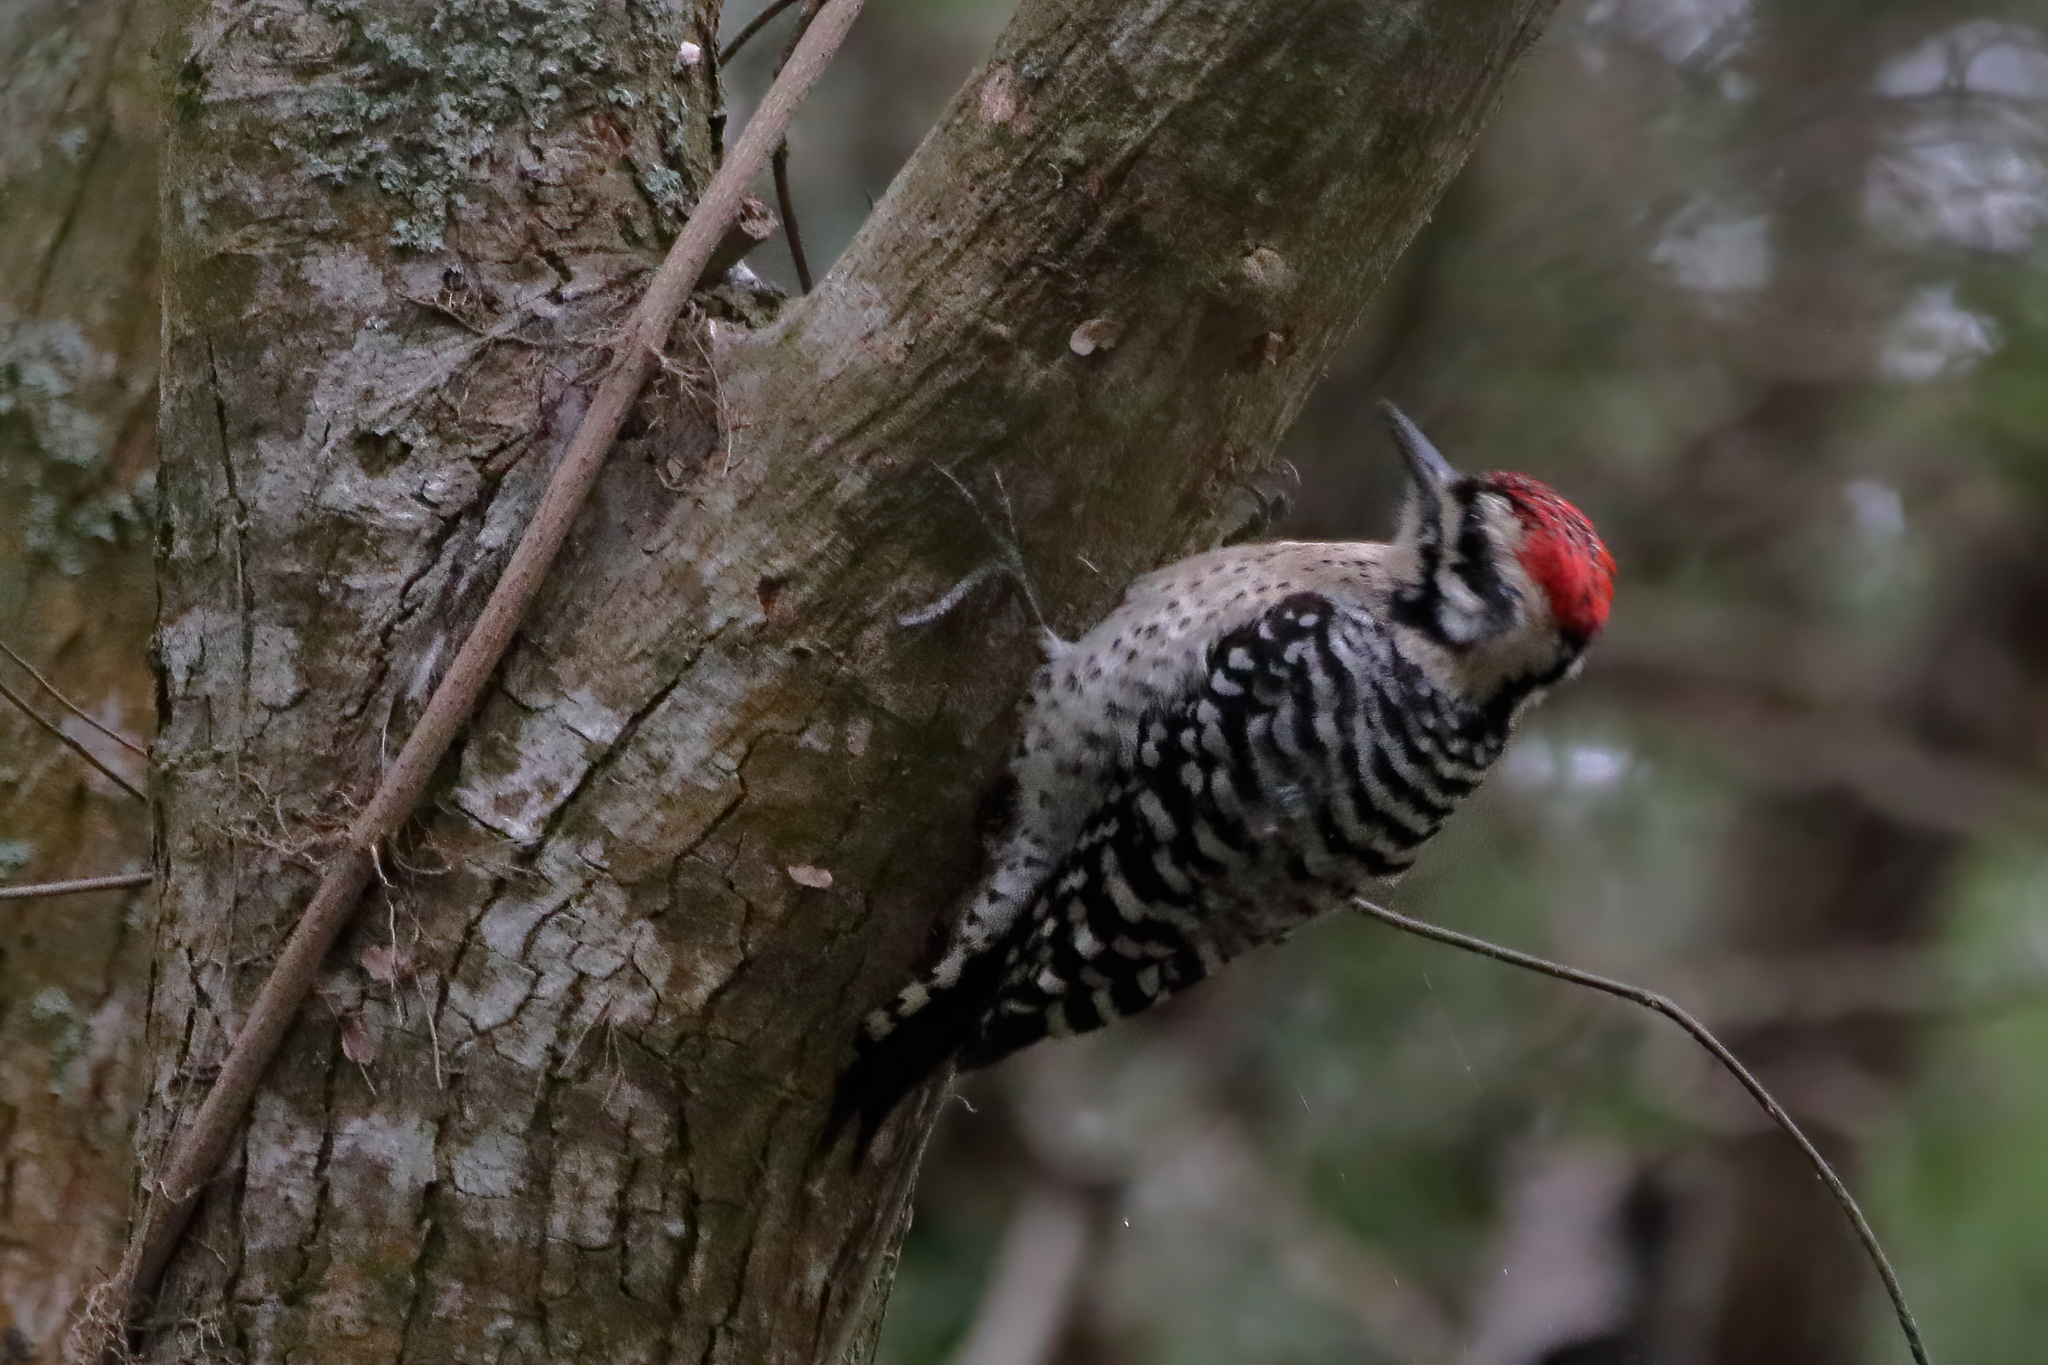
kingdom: Animalia
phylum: Chordata
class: Aves
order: Piciformes
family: Picidae
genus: Dryobates
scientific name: Dryobates scalaris
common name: Ladder-backed woodpecker
